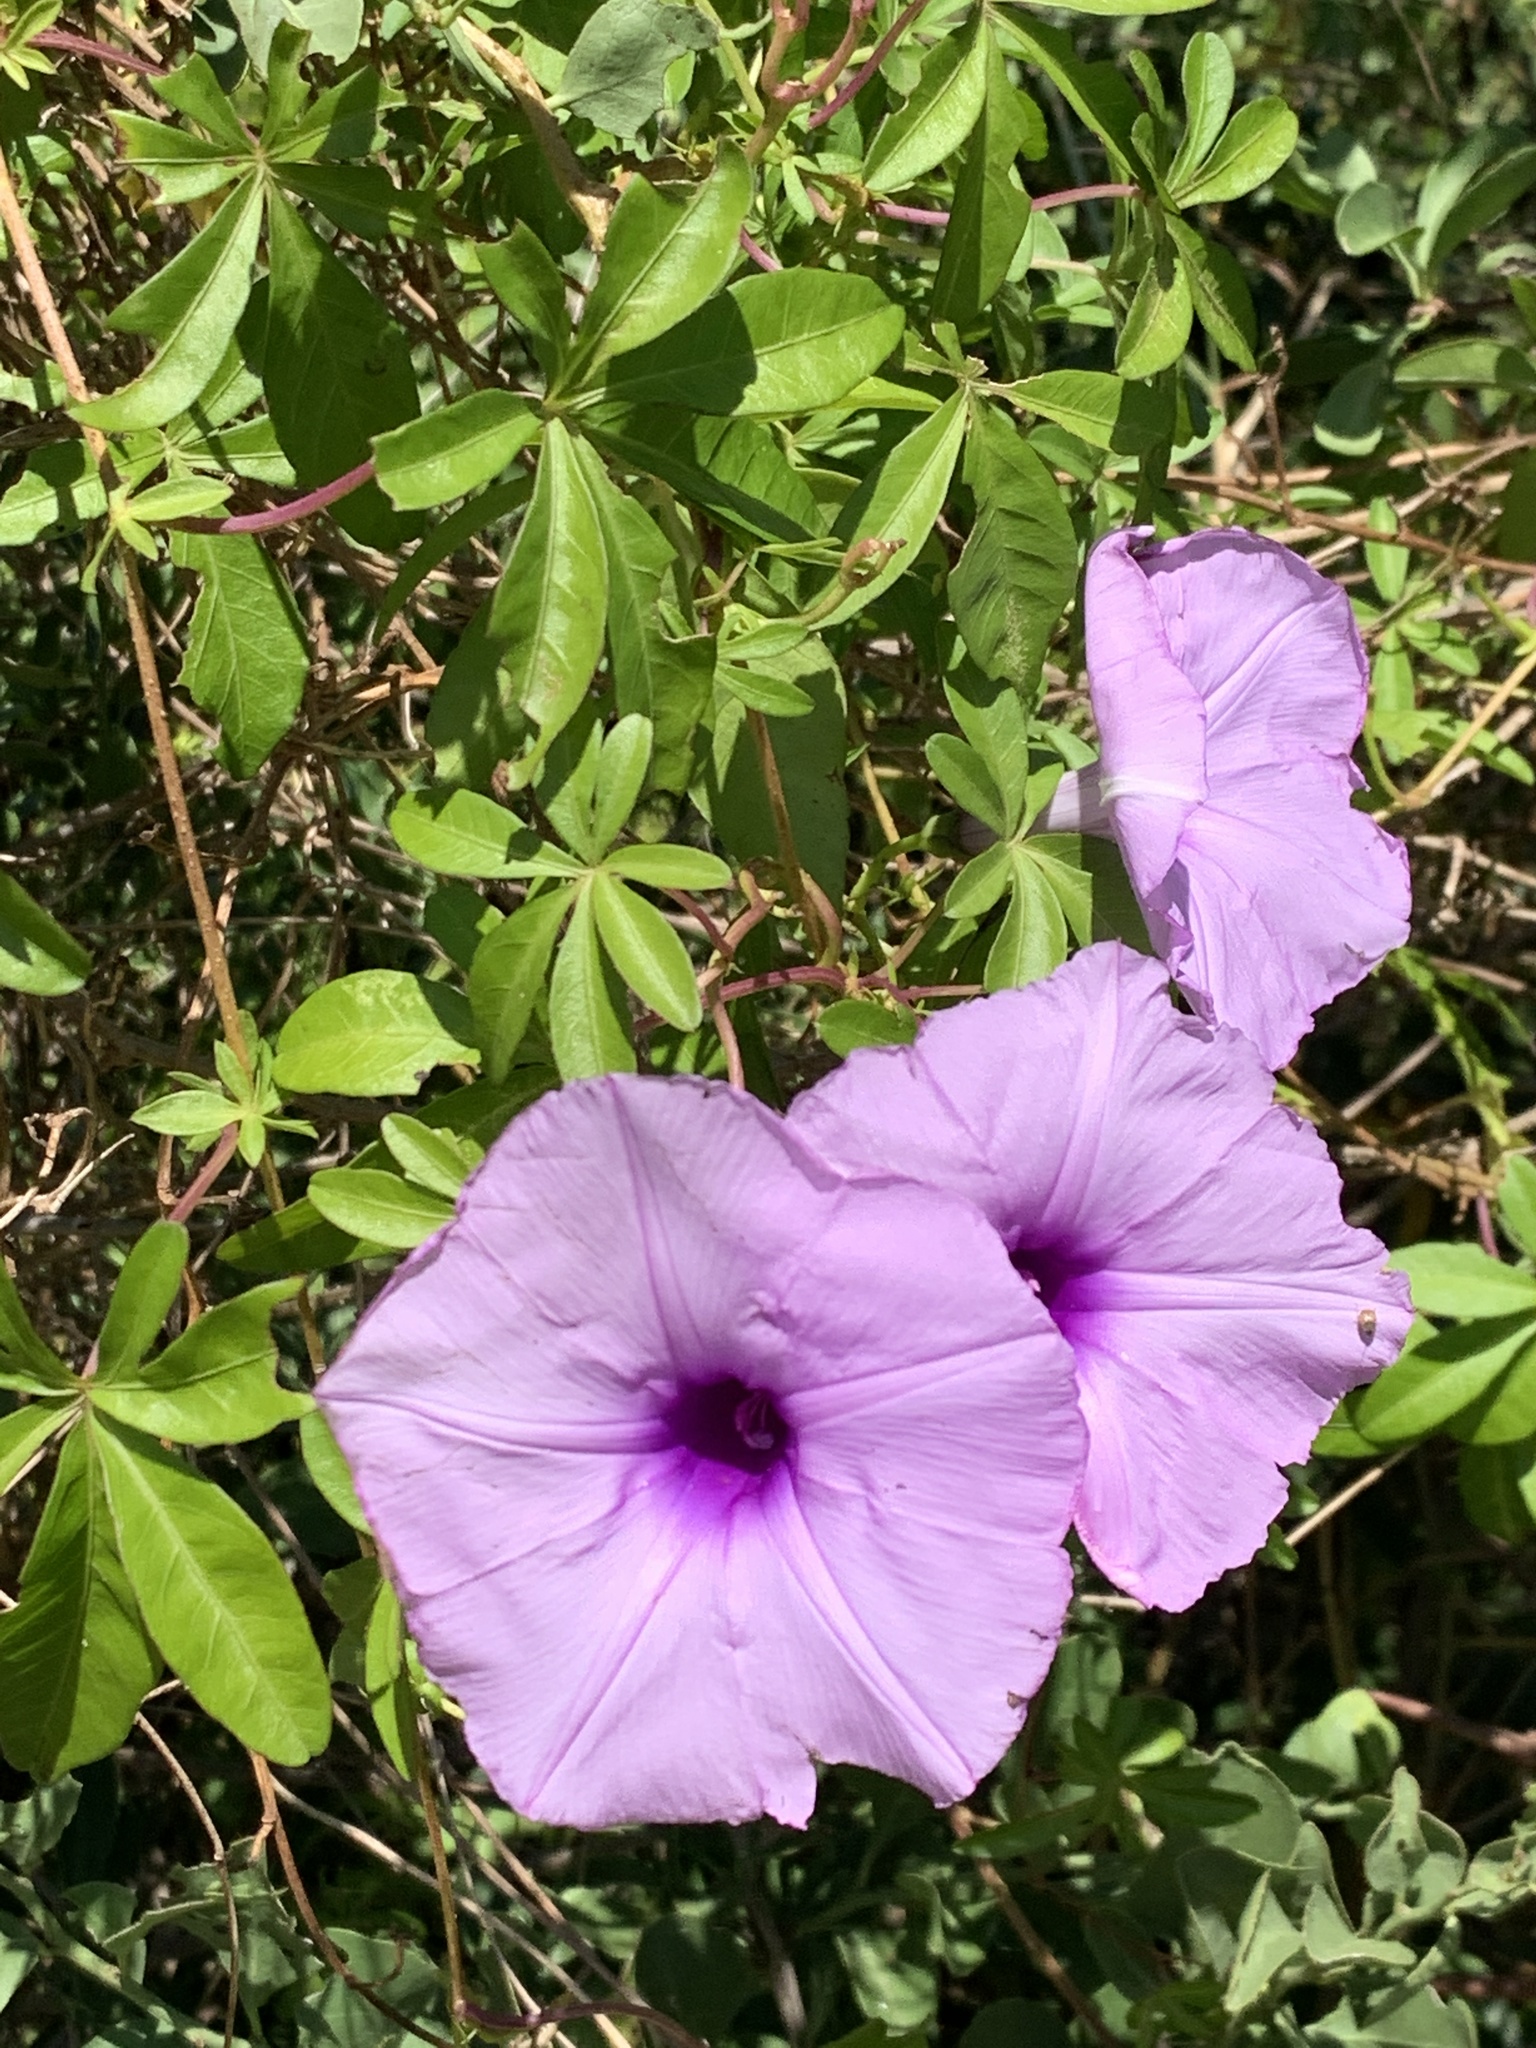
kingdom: Plantae
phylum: Tracheophyta
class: Magnoliopsida
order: Solanales
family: Convolvulaceae
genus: Ipomoea
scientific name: Ipomoea cairica
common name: Mile a minute vine
